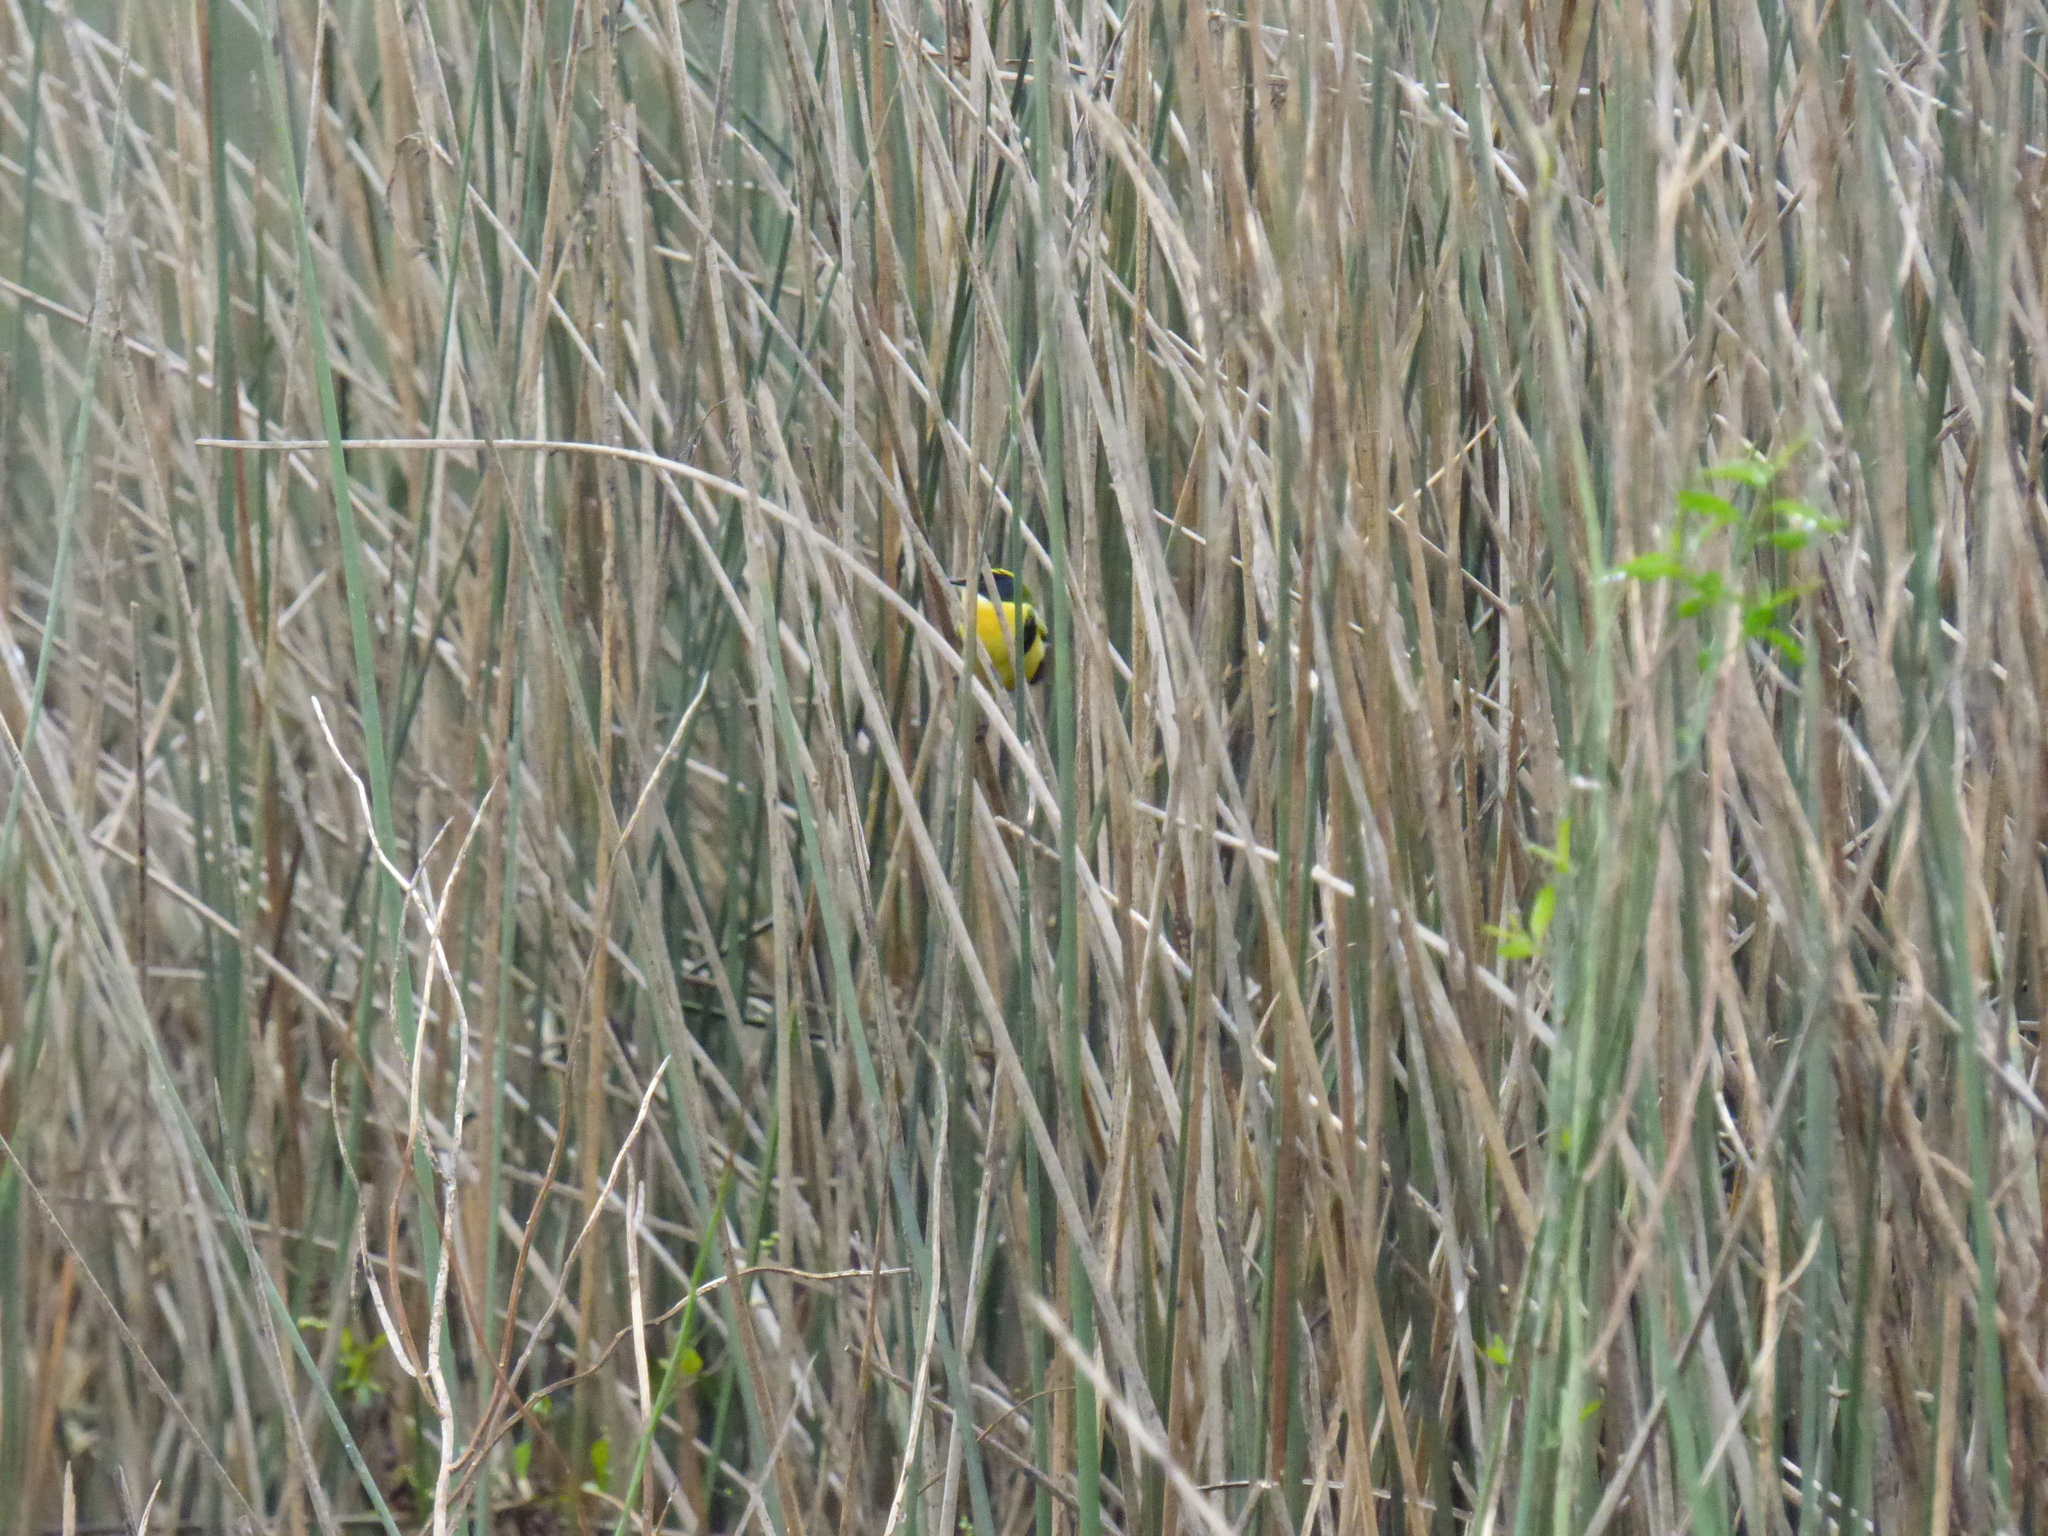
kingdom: Animalia
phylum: Chordata
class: Aves
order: Passeriformes
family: Tyrannidae
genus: Tachuris
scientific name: Tachuris rubrigastra
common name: Many-colored rush tyrant
